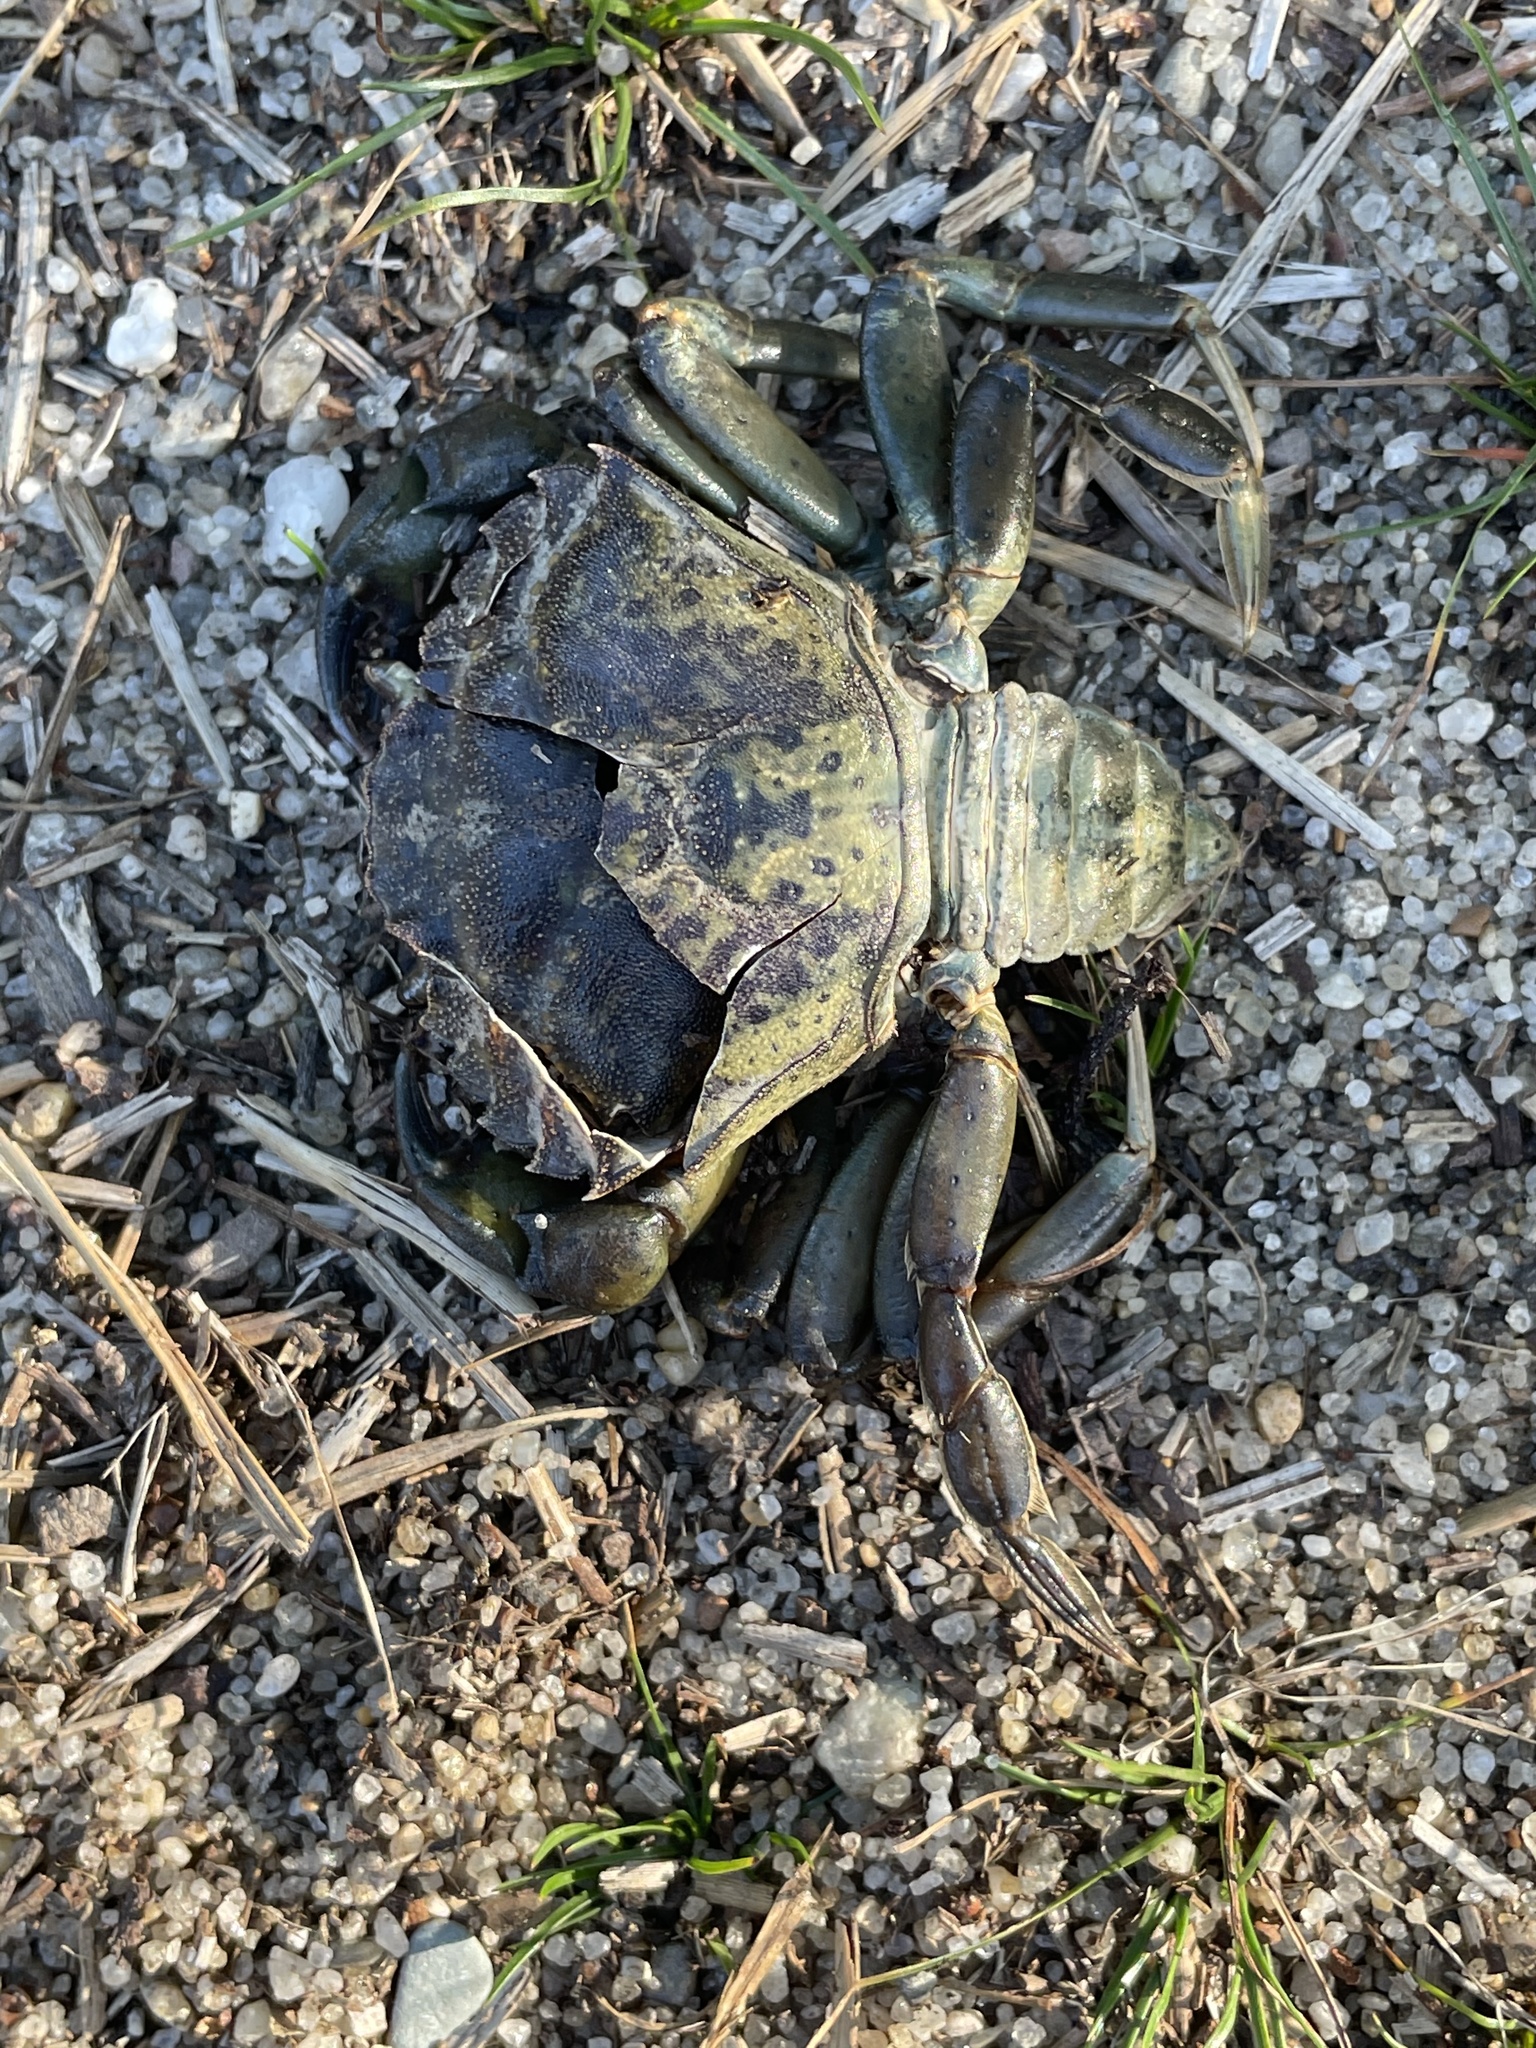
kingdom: Animalia
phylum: Arthropoda
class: Malacostraca
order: Decapoda
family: Carcinidae
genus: Carcinus
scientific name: Carcinus maenas
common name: European green crab
